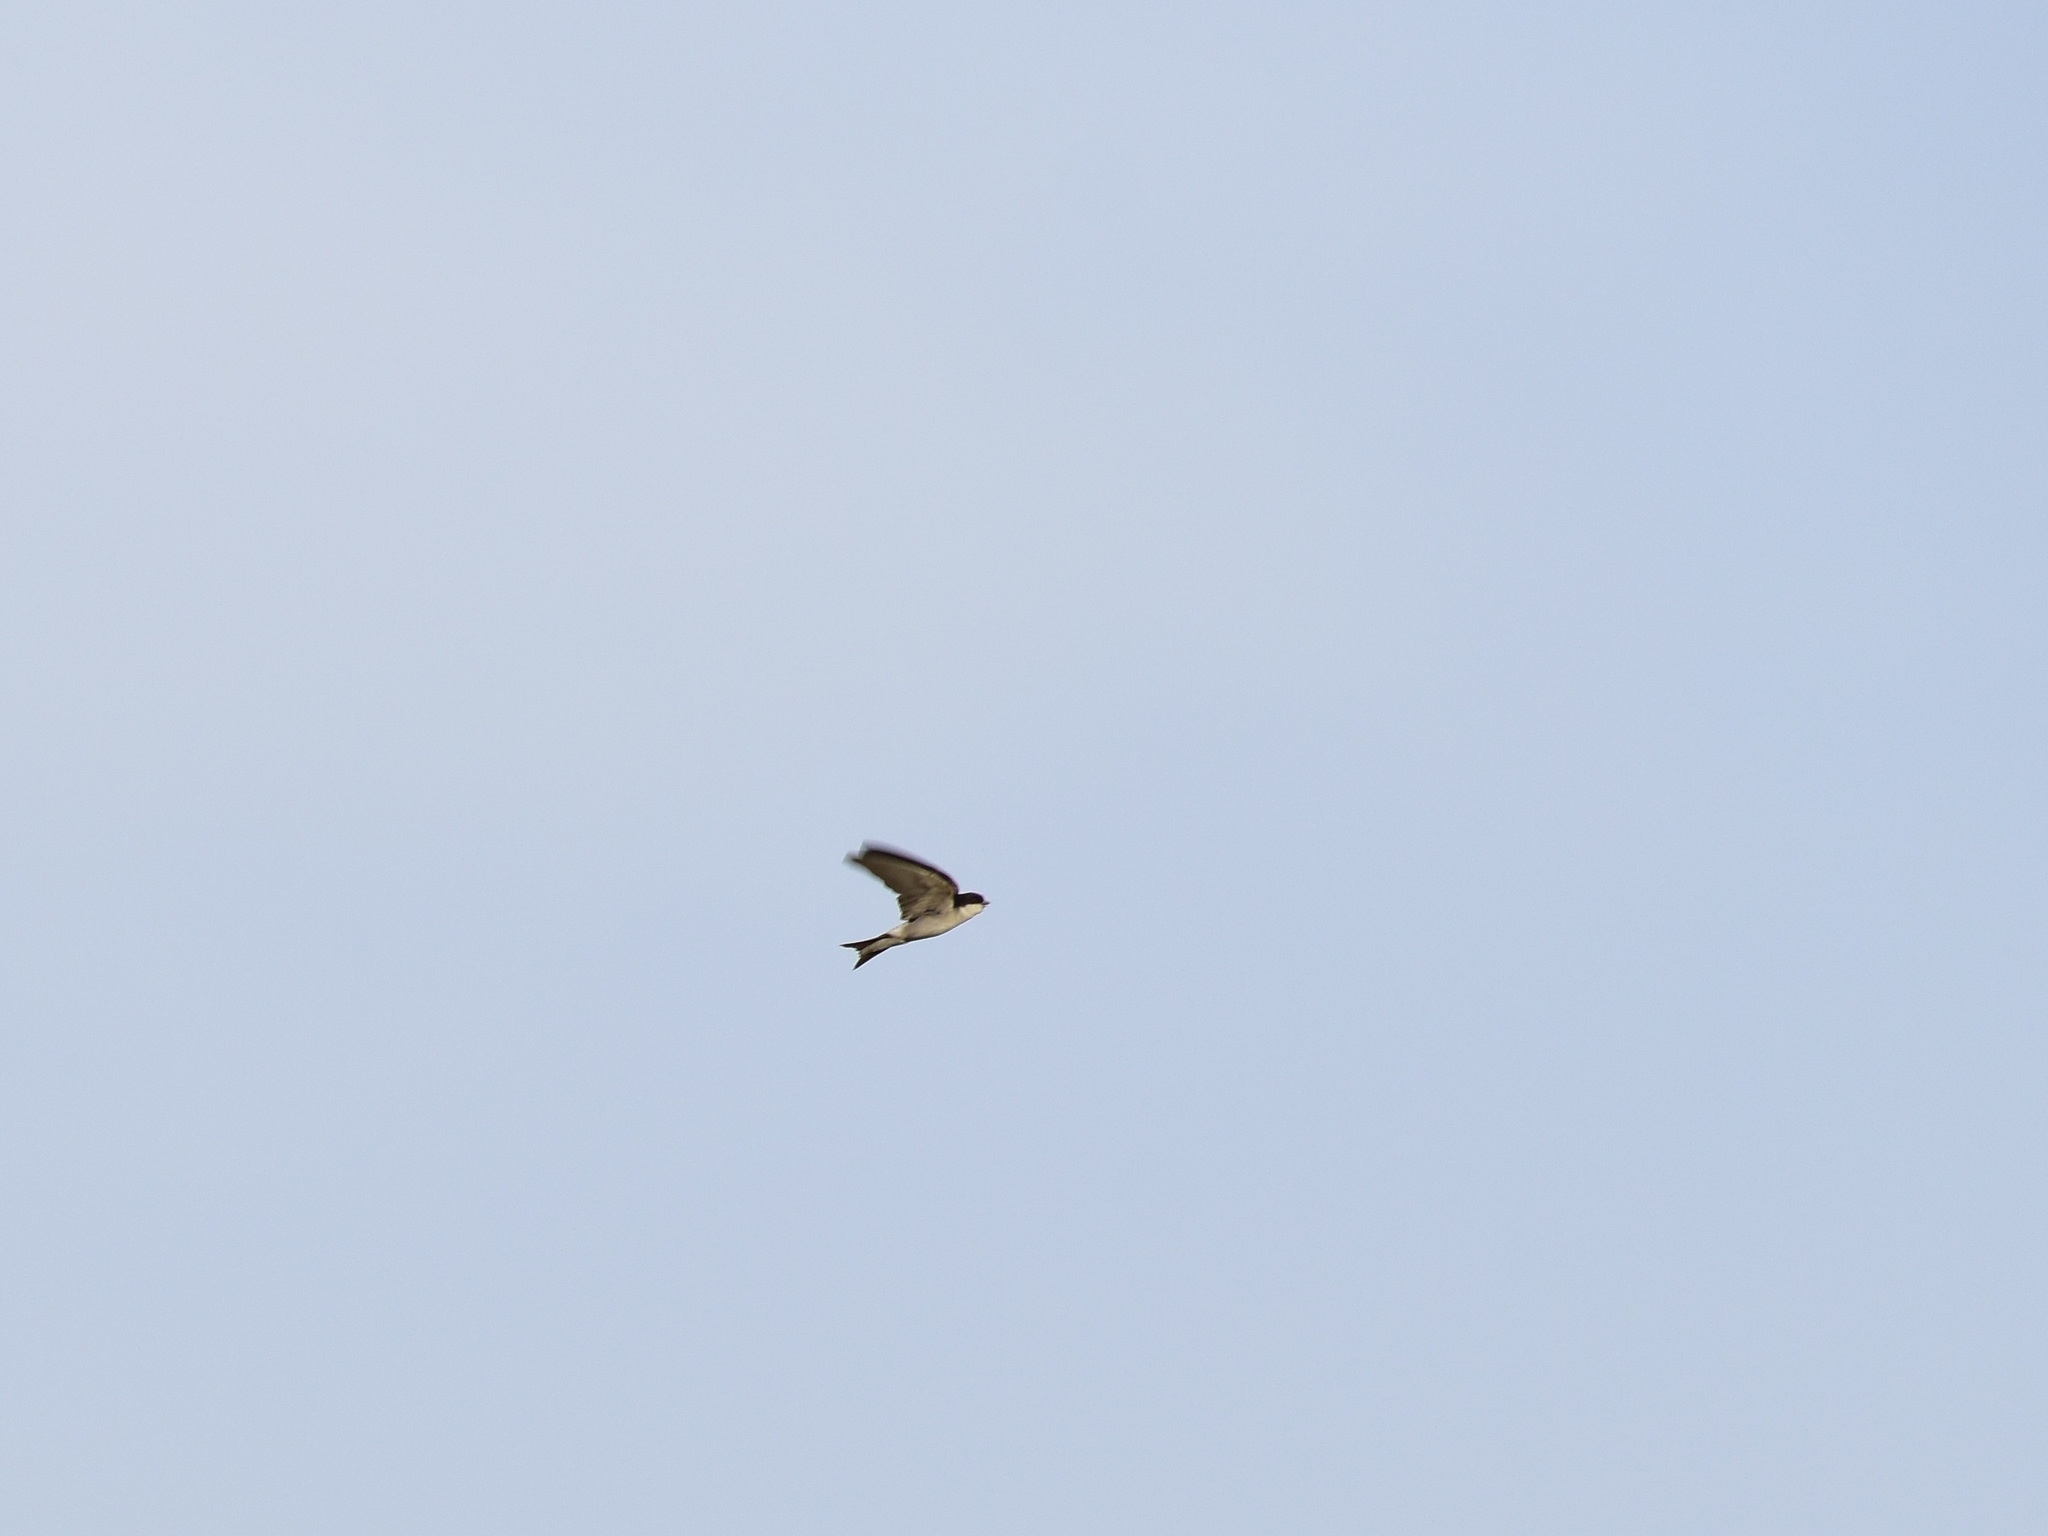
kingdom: Animalia
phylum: Chordata
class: Aves
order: Passeriformes
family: Hirundinidae
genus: Delichon
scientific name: Delichon urbicum
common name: Common house martin
